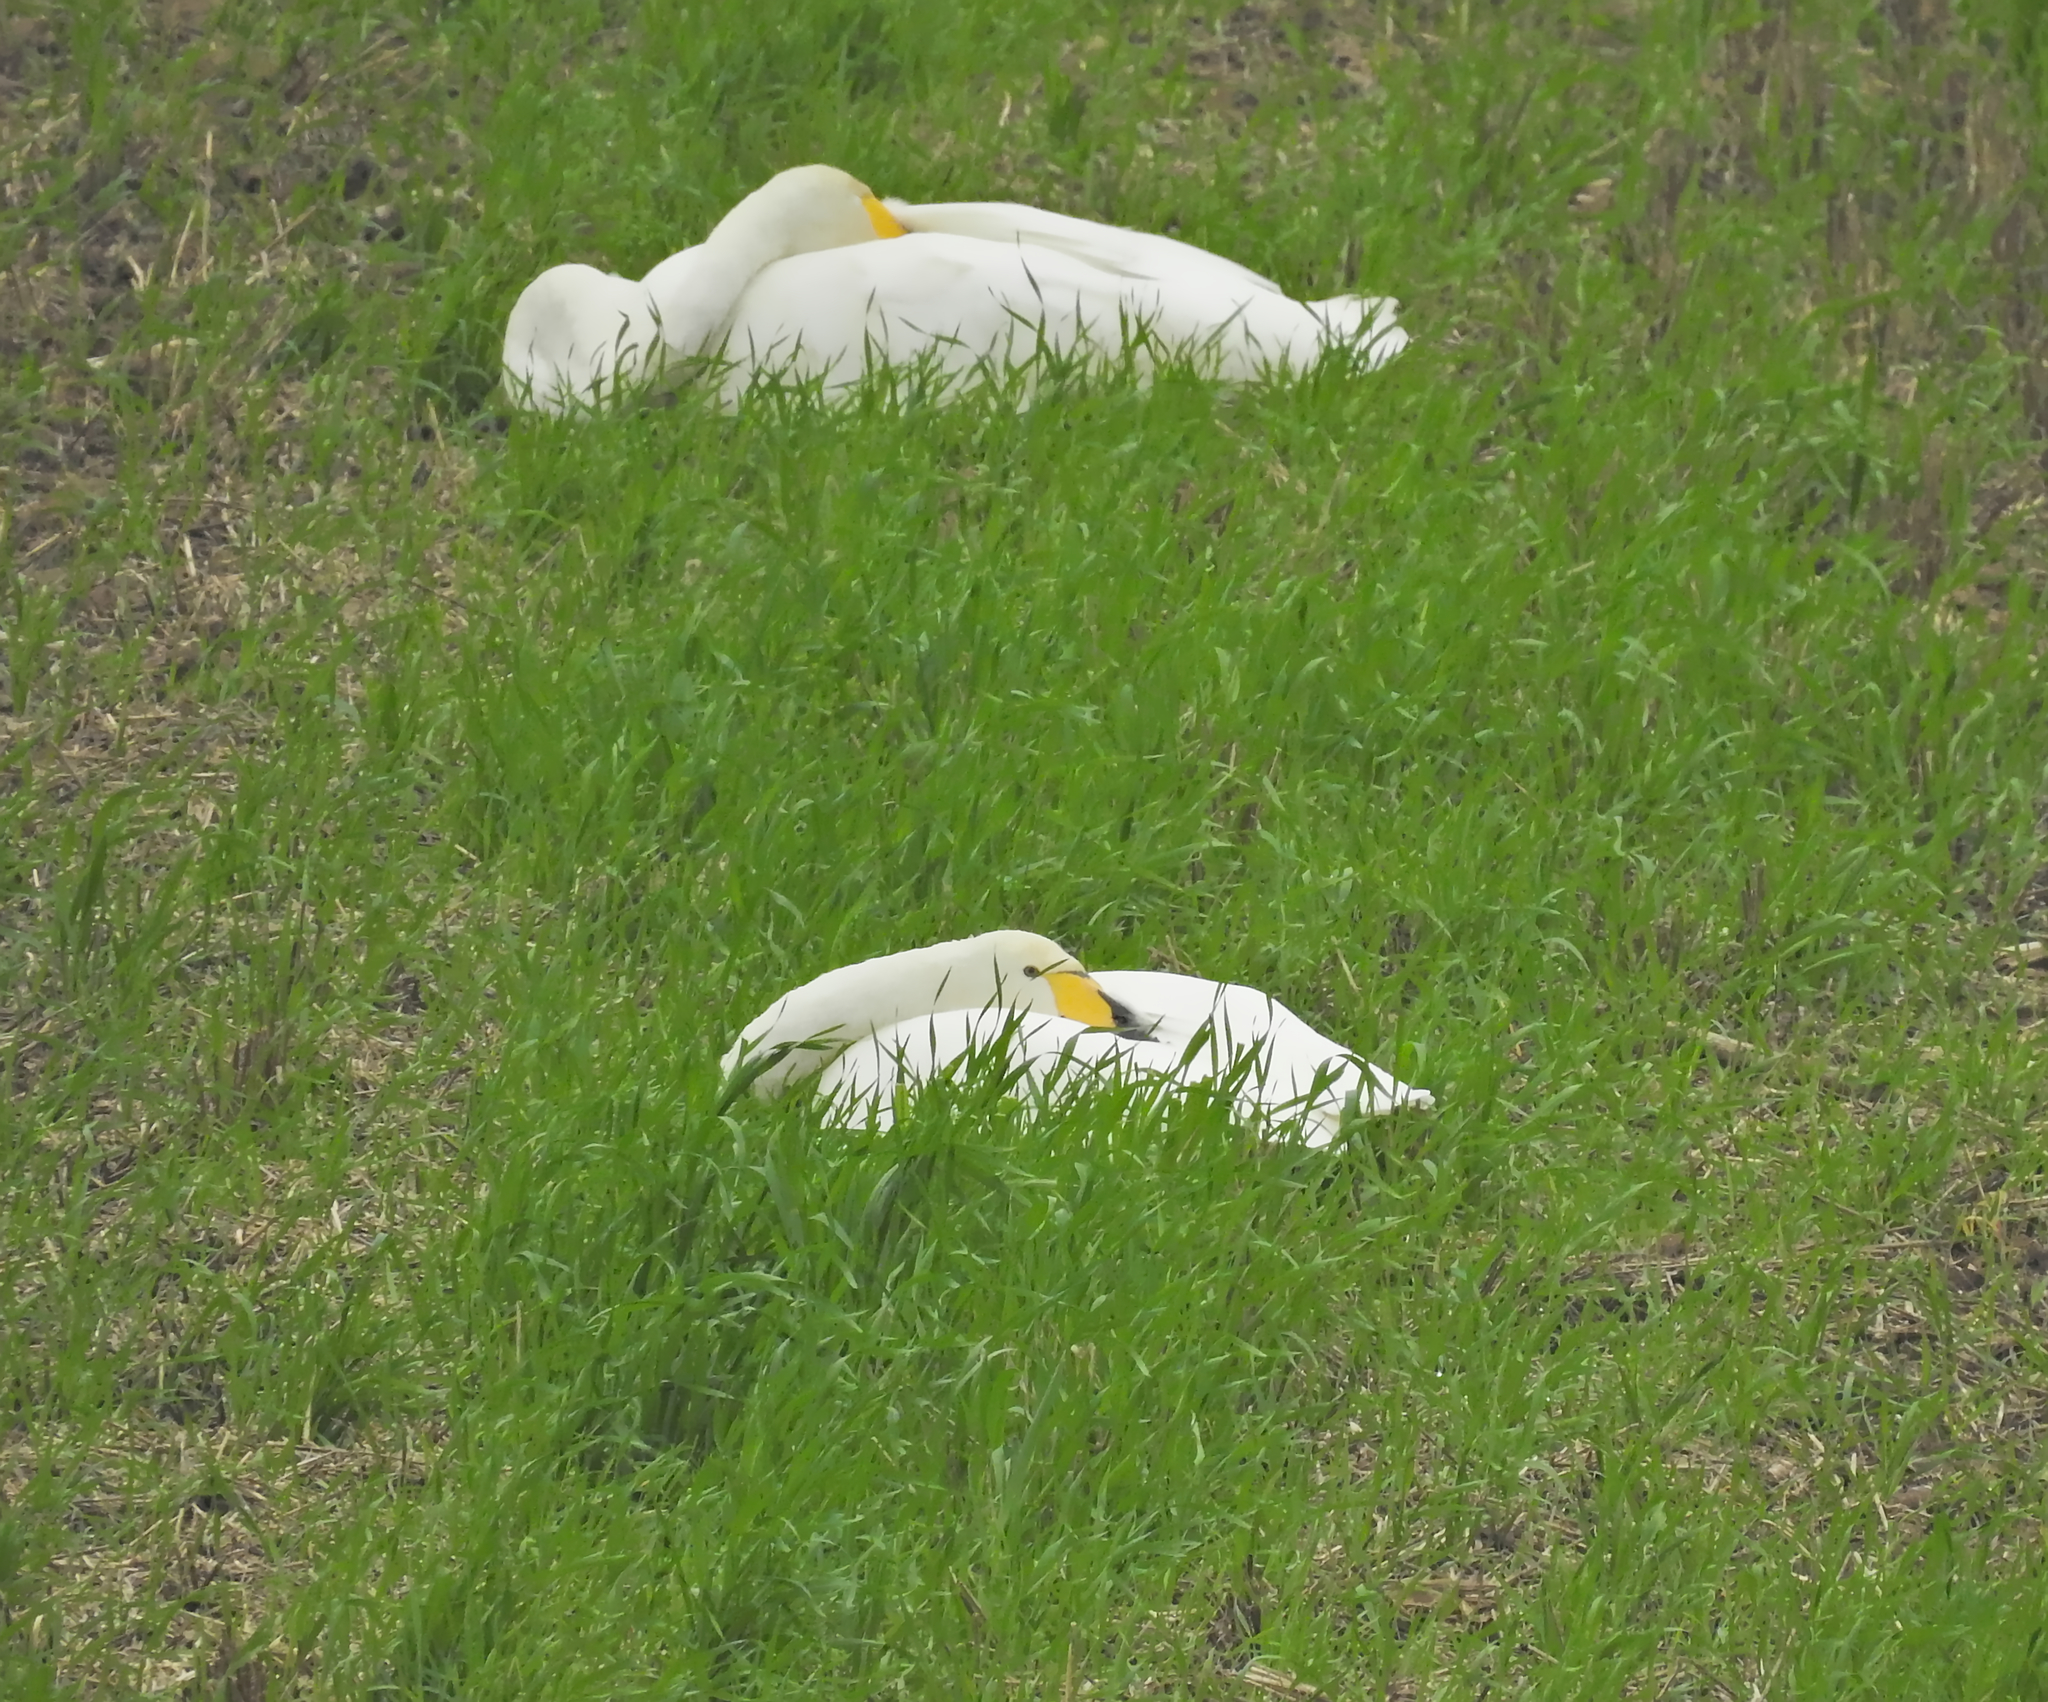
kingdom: Animalia
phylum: Chordata
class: Aves
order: Anseriformes
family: Anatidae
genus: Cygnus
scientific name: Cygnus cygnus
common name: Whooper swan
